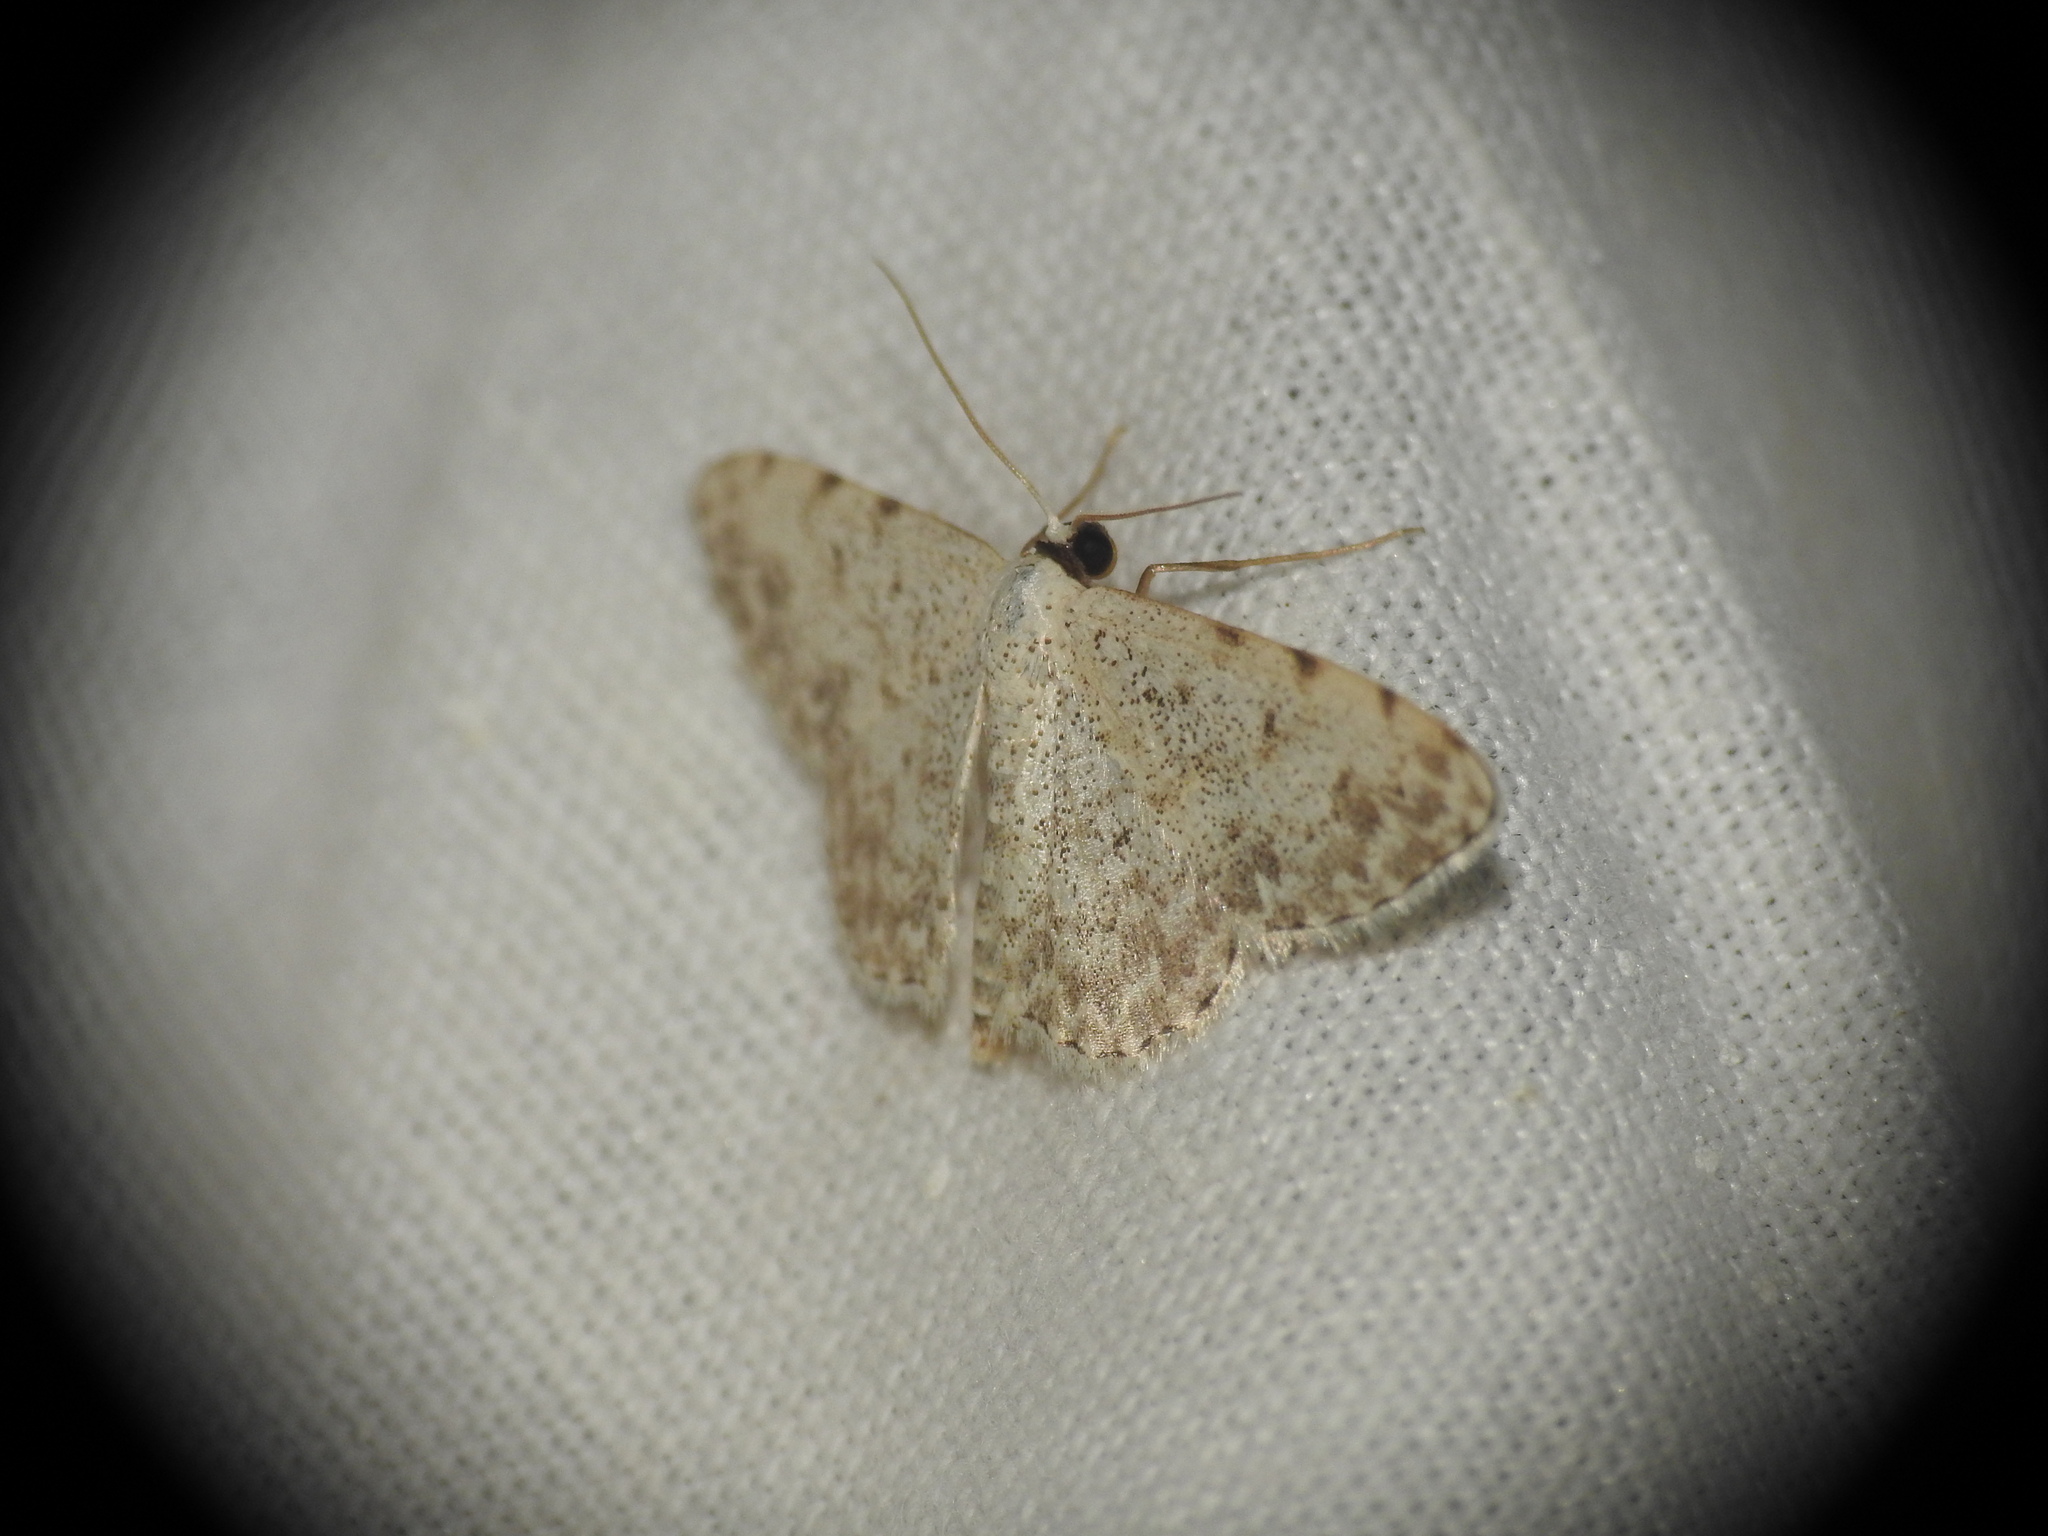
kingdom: Animalia
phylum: Arthropoda
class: Insecta
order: Lepidoptera
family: Geometridae
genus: Scopula
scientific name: Scopula submutata
